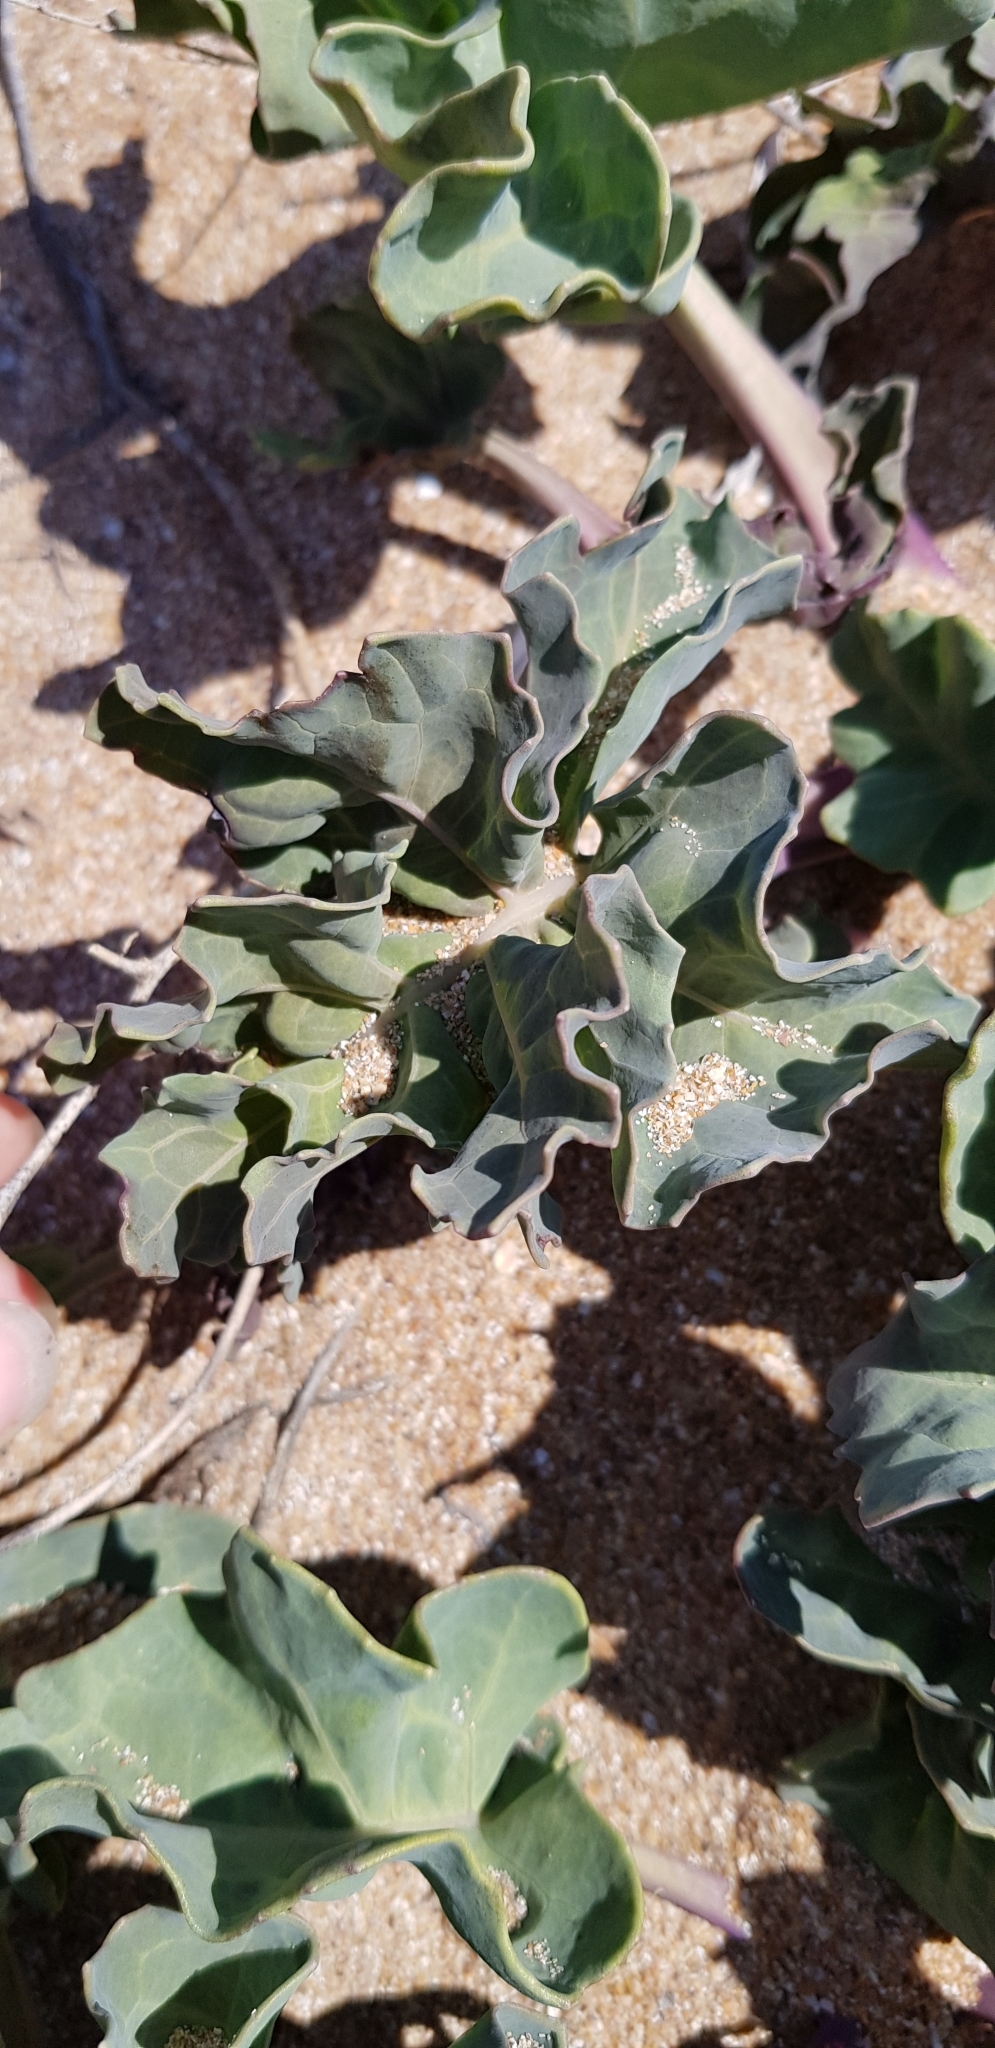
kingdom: Plantae
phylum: Tracheophyta
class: Magnoliopsida
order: Brassicales
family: Brassicaceae
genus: Crambe
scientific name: Crambe maritima
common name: Sea-kale
